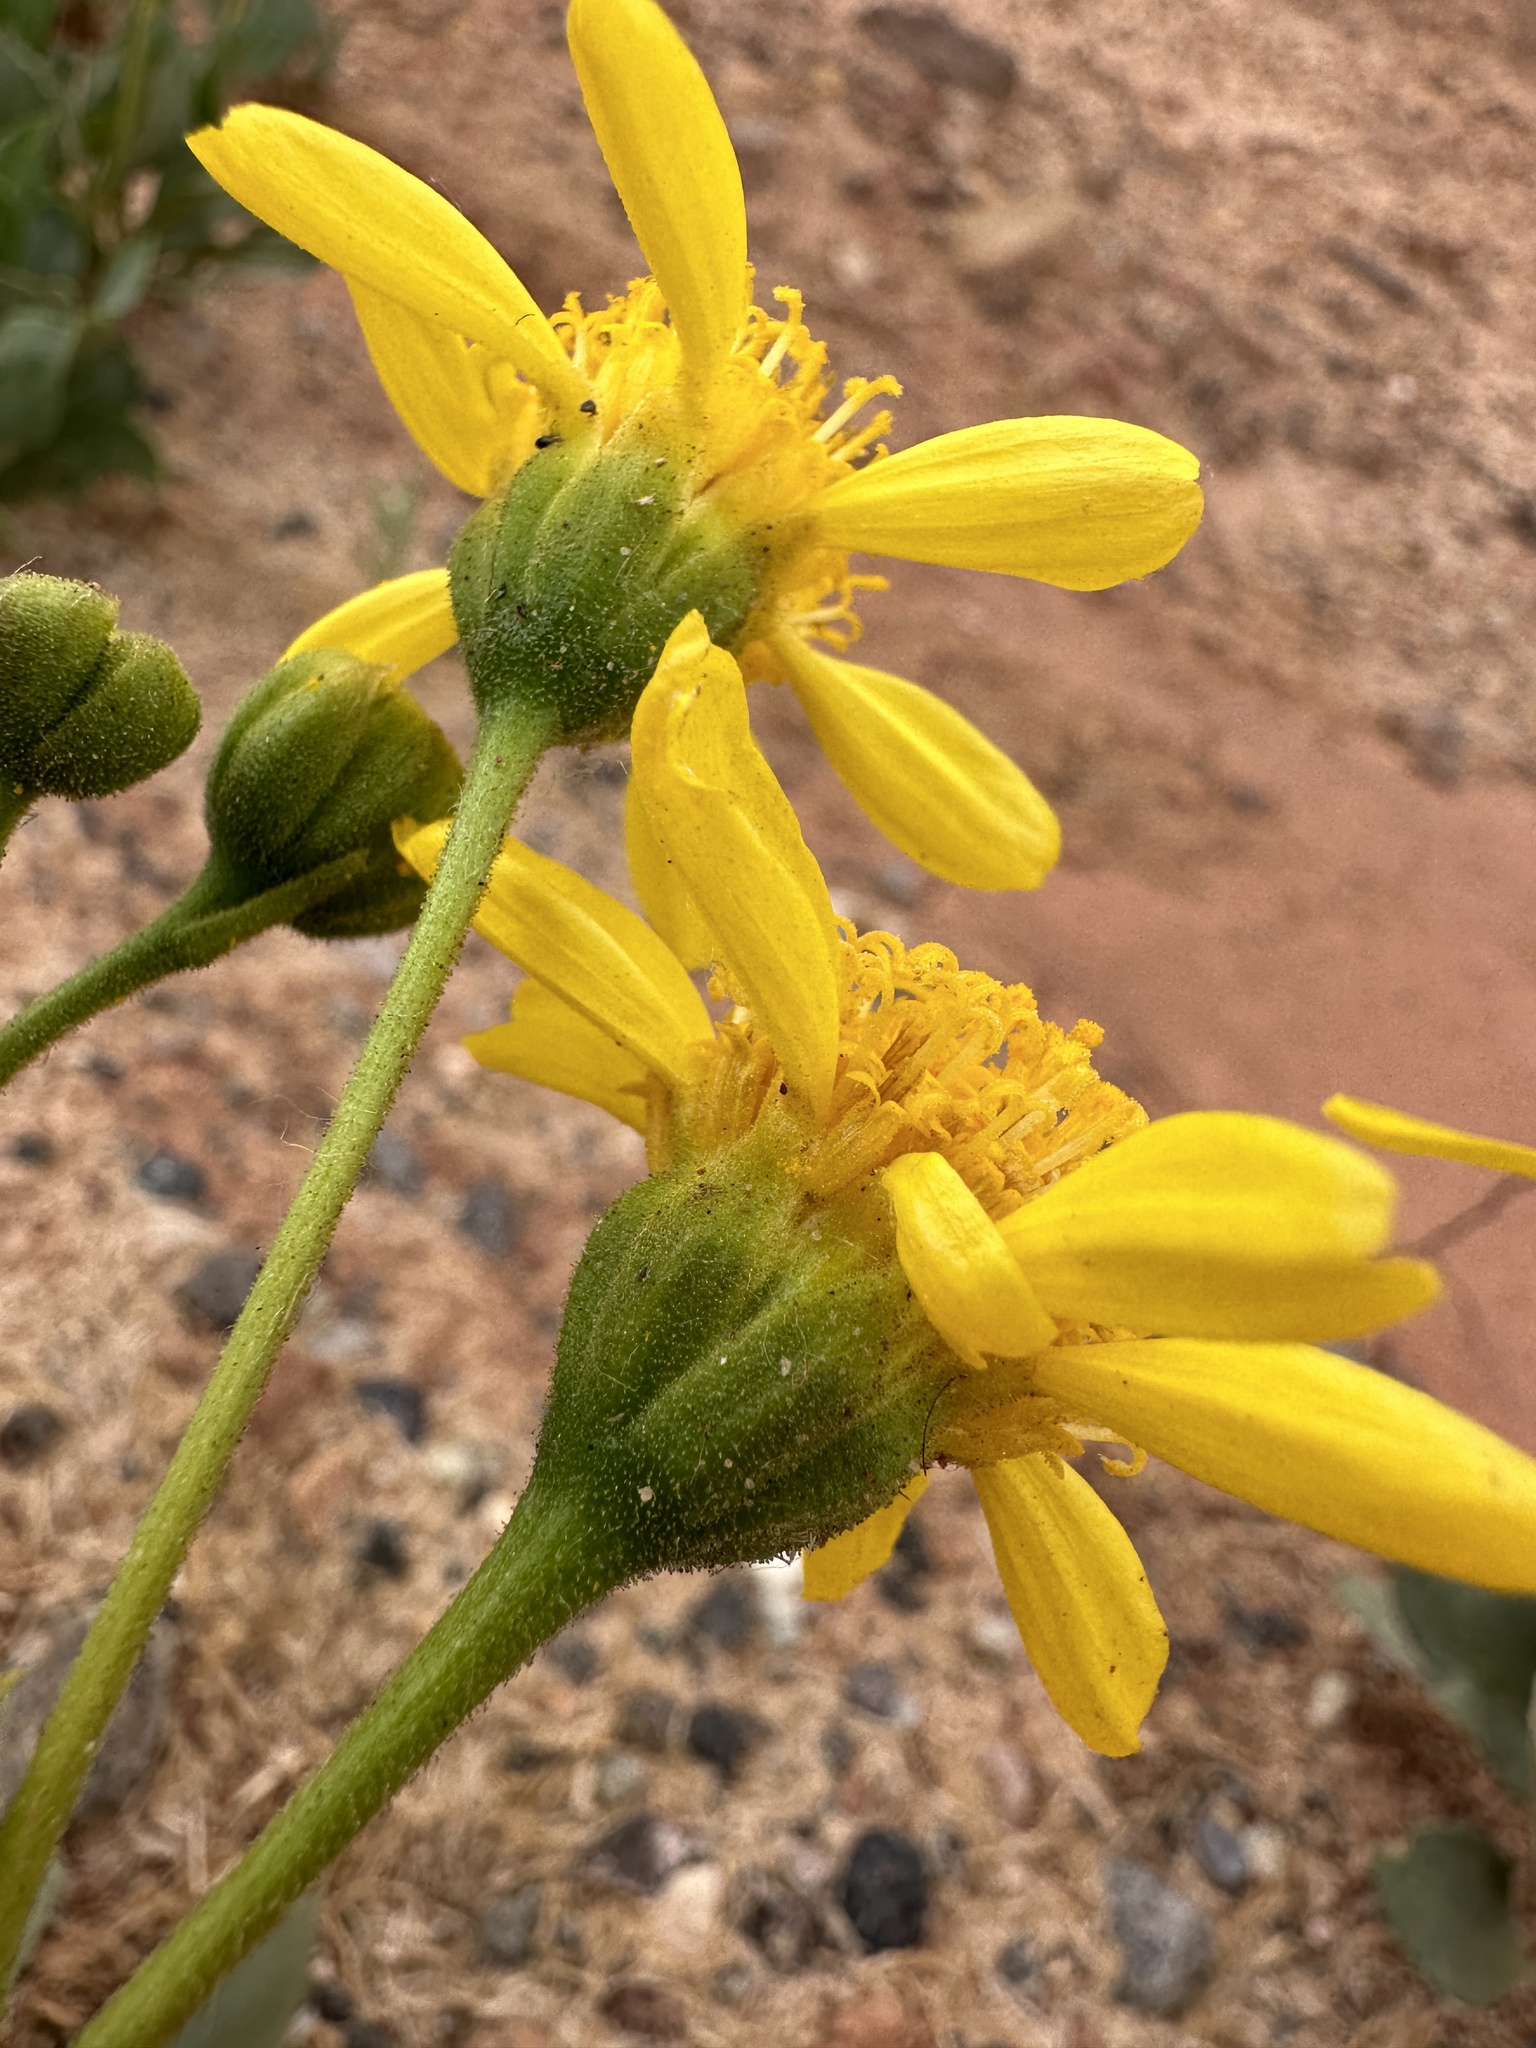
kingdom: Plantae
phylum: Tracheophyta
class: Magnoliopsida
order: Asterales
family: Asteraceae
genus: Platyschkuhria
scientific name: Platyschkuhria integrifolia
